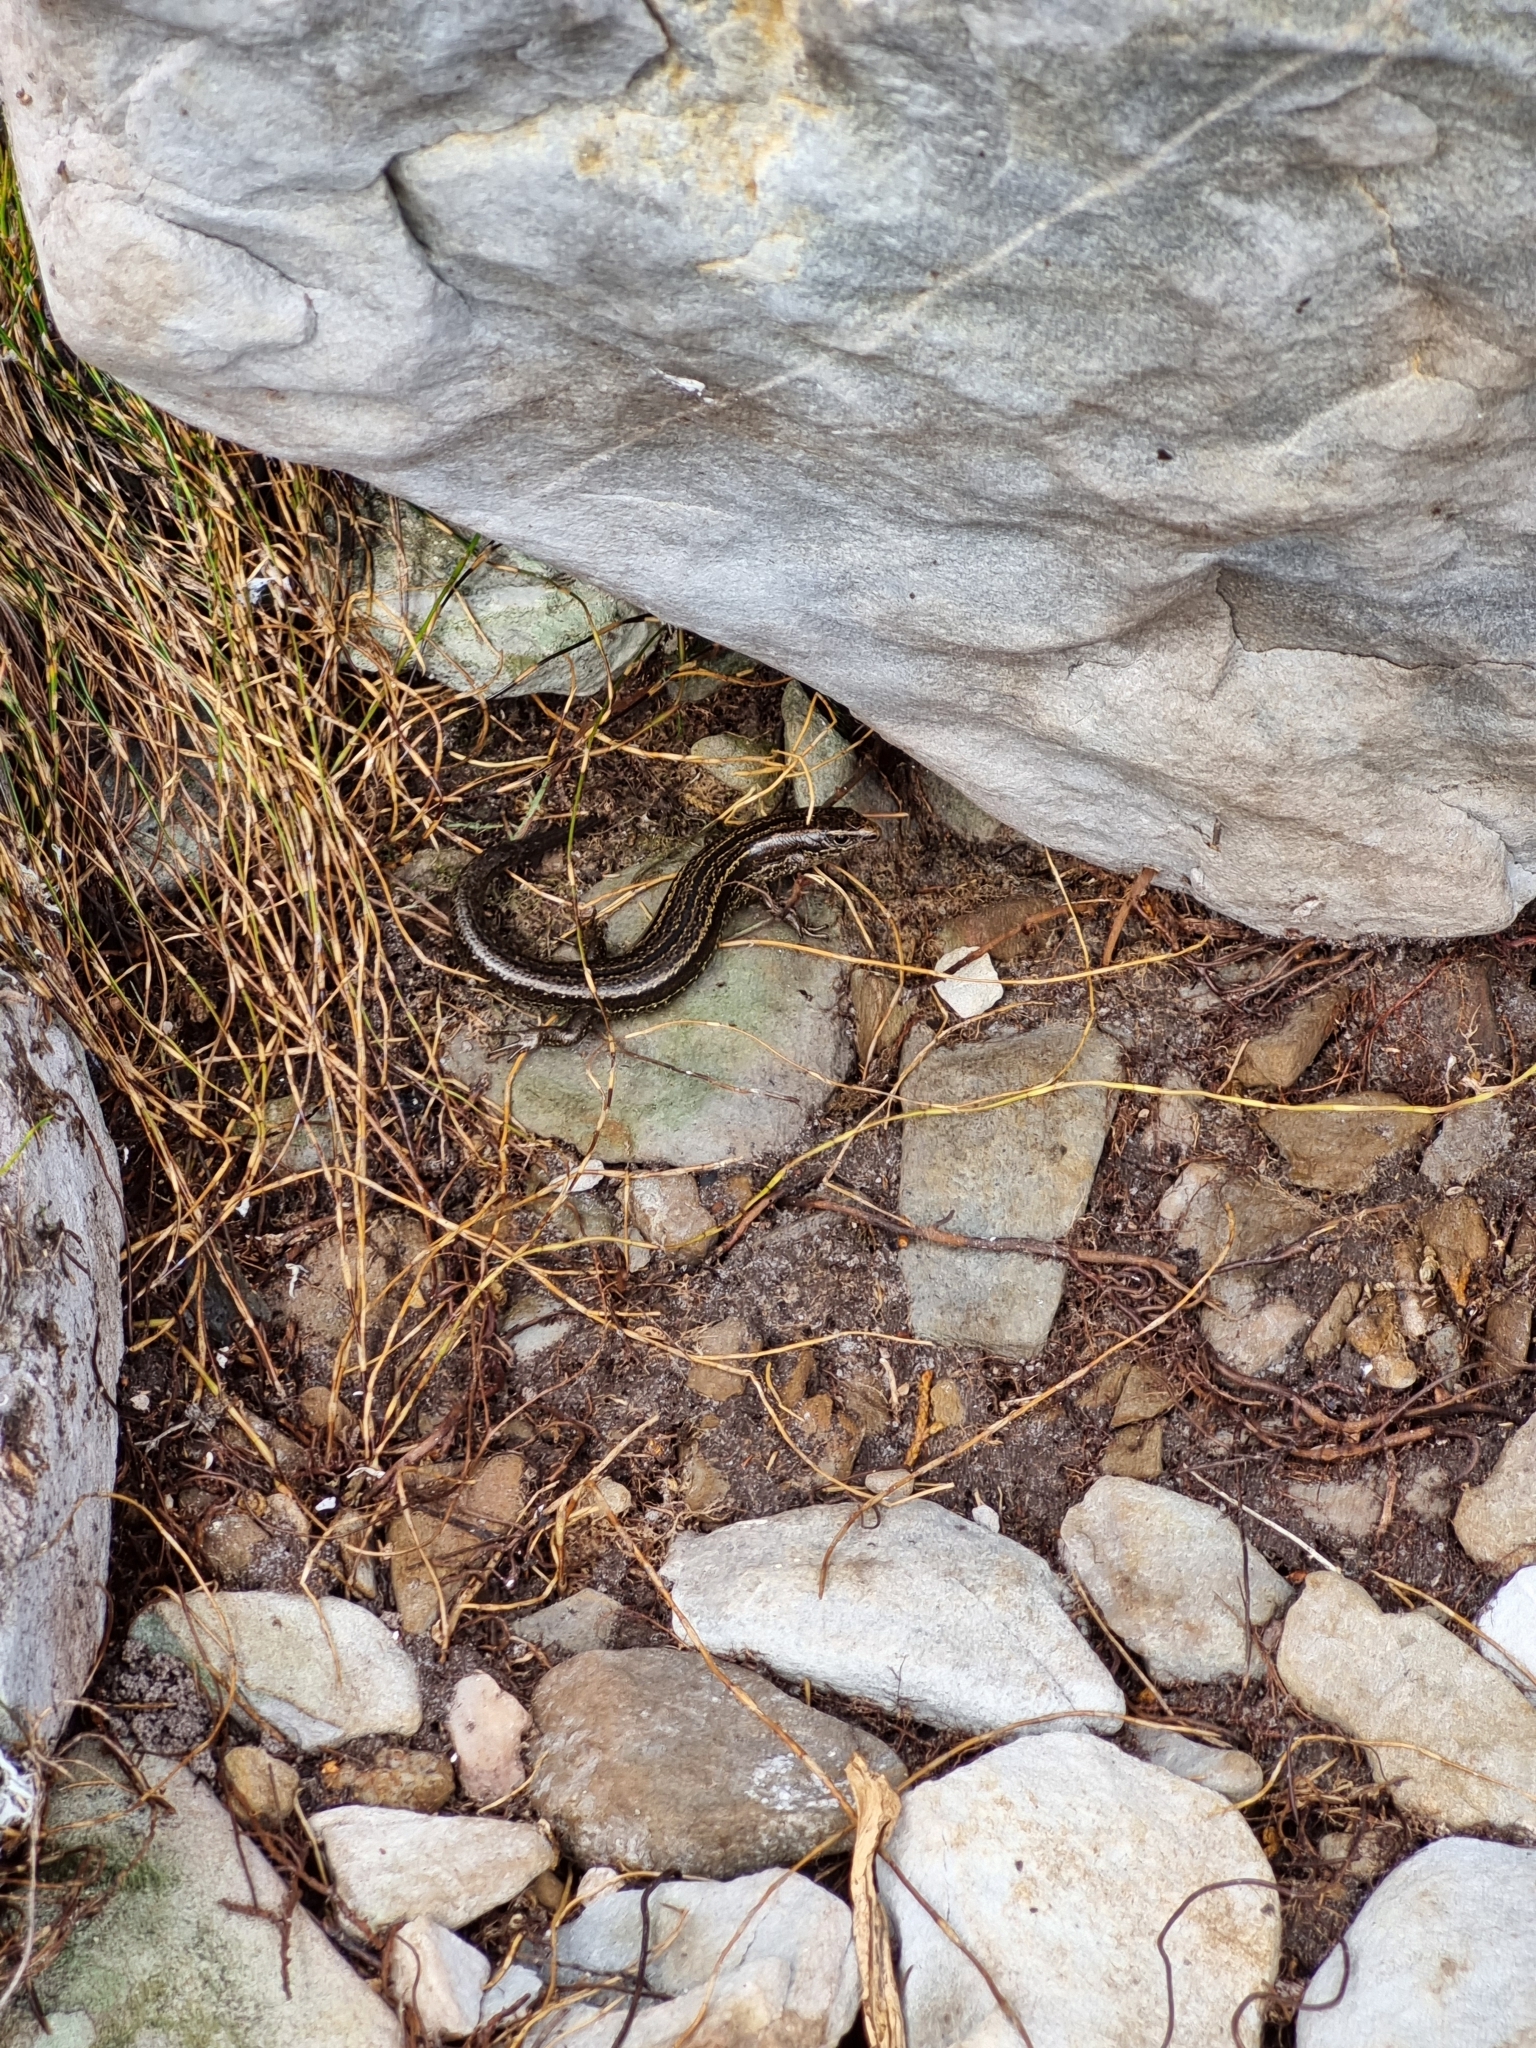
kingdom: Animalia
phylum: Chordata
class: Squamata
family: Scincidae
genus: Oligosoma
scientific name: Oligosoma newmani
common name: Newman’s speckled skink
